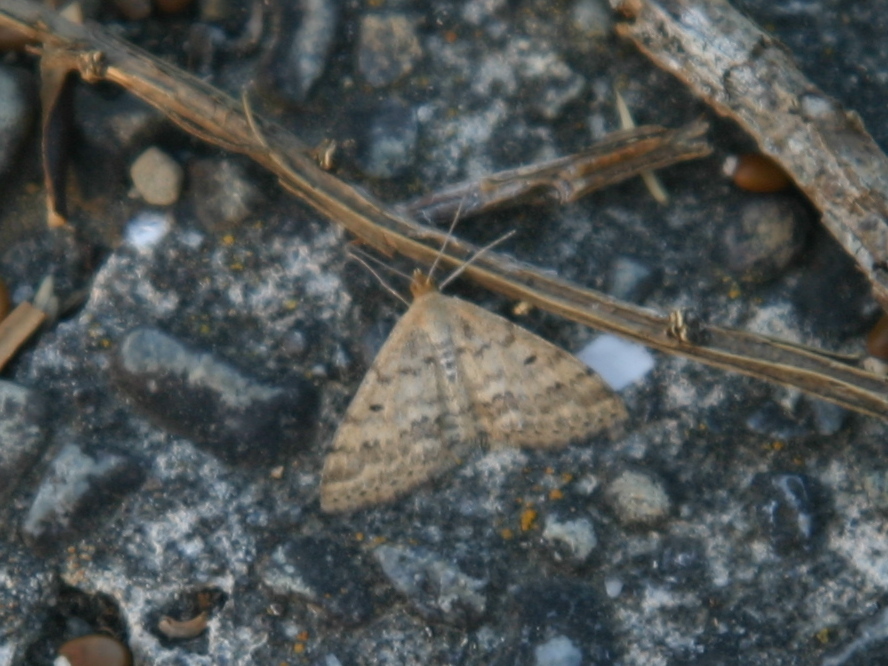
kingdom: Animalia
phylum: Arthropoda
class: Insecta
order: Lepidoptera
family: Geometridae
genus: Scopula
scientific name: Scopula rubraria
